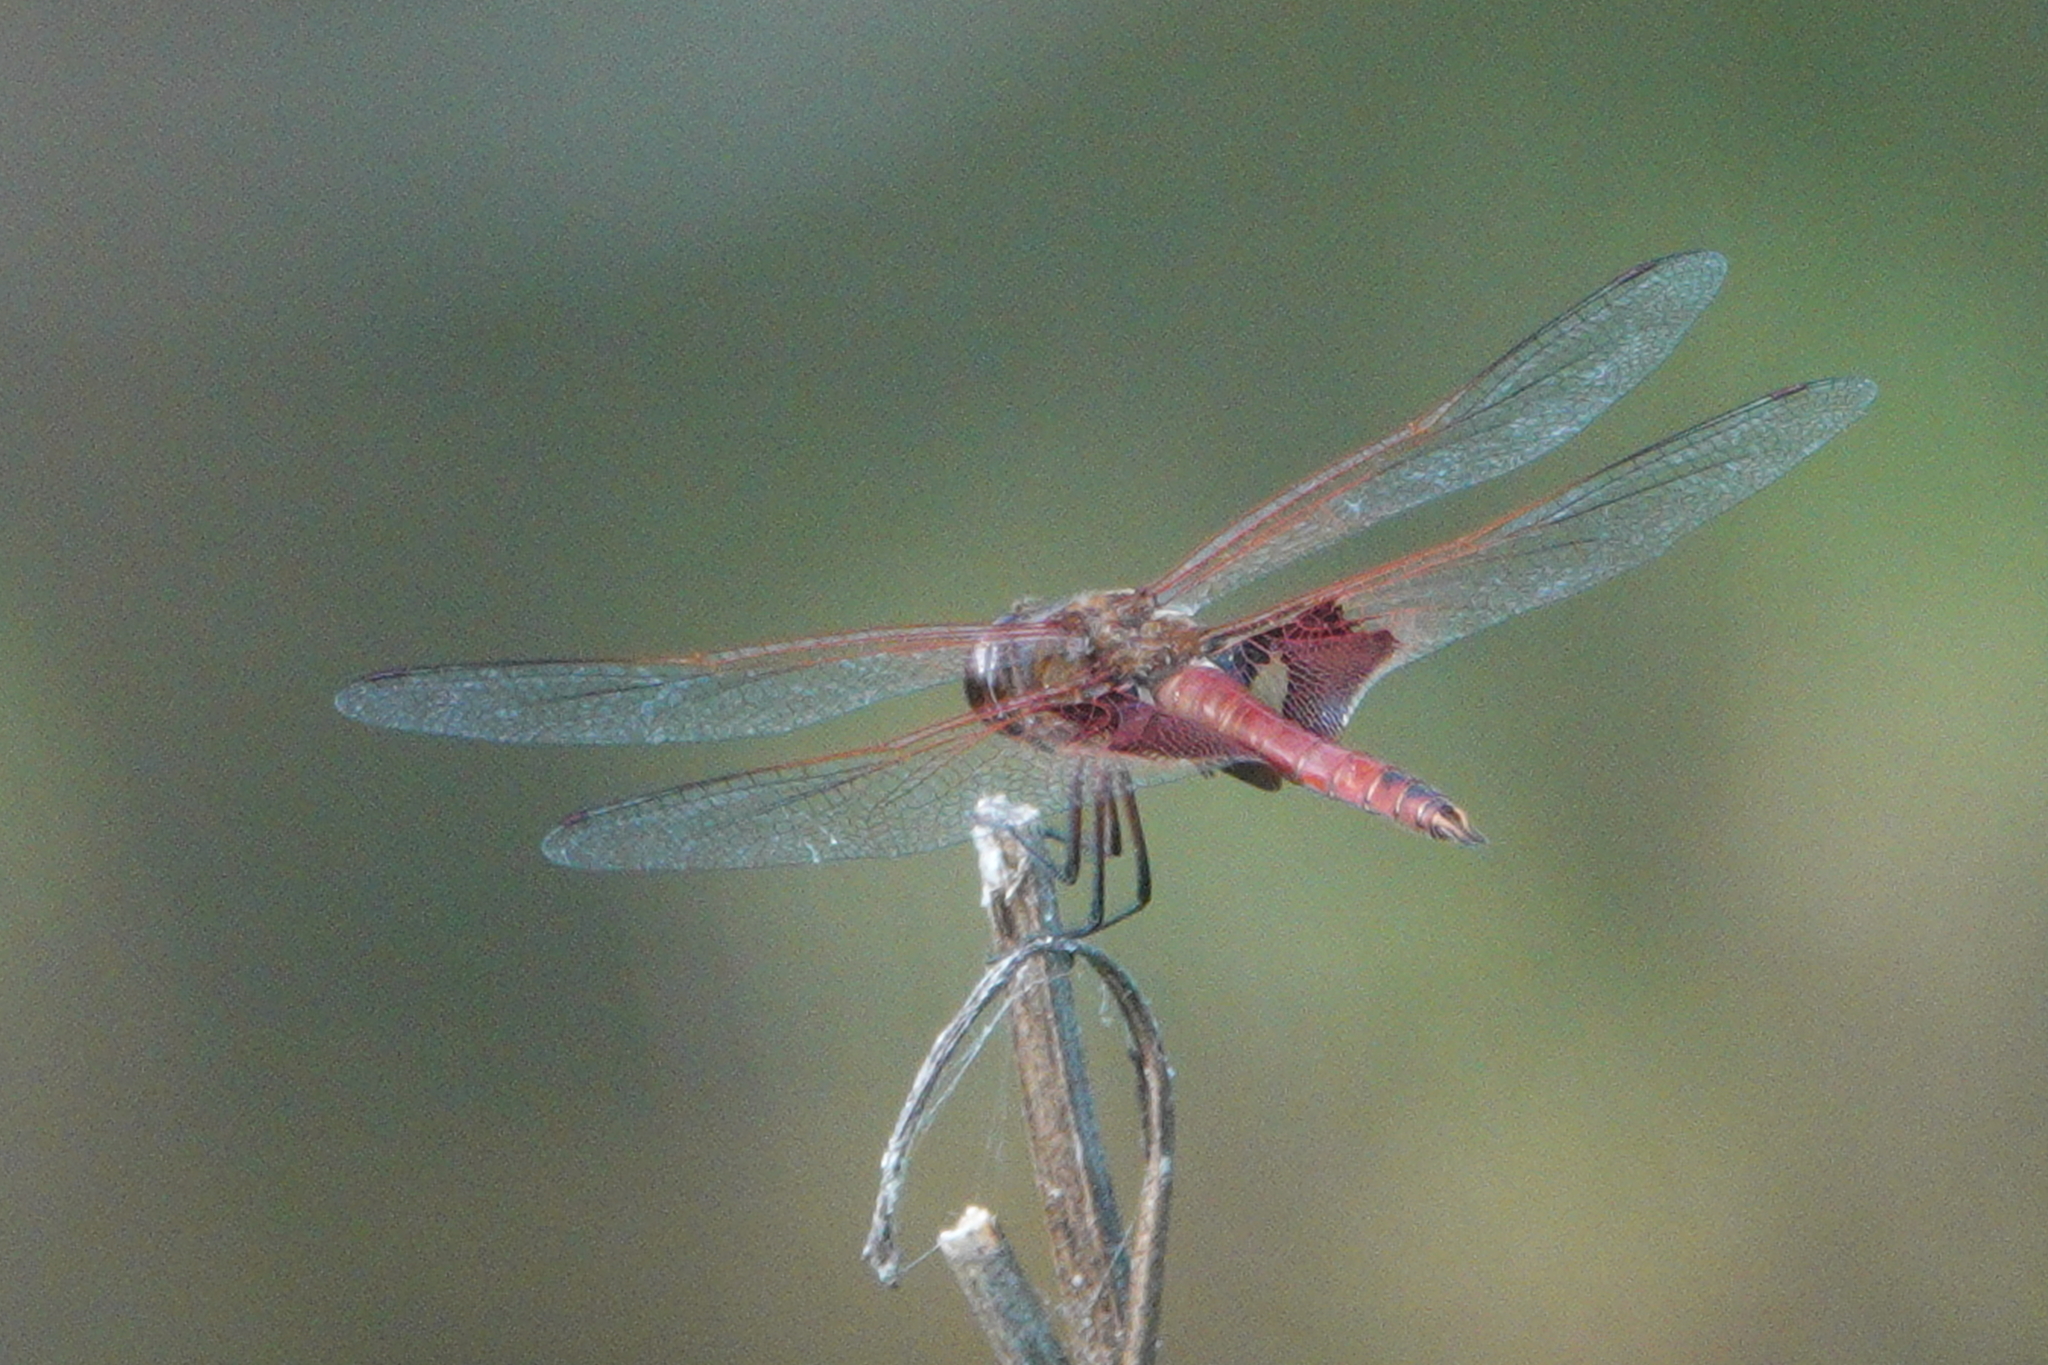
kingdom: Animalia
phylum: Arthropoda
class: Insecta
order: Odonata
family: Libellulidae
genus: Tramea
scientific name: Tramea onusta
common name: Red saddlebags
